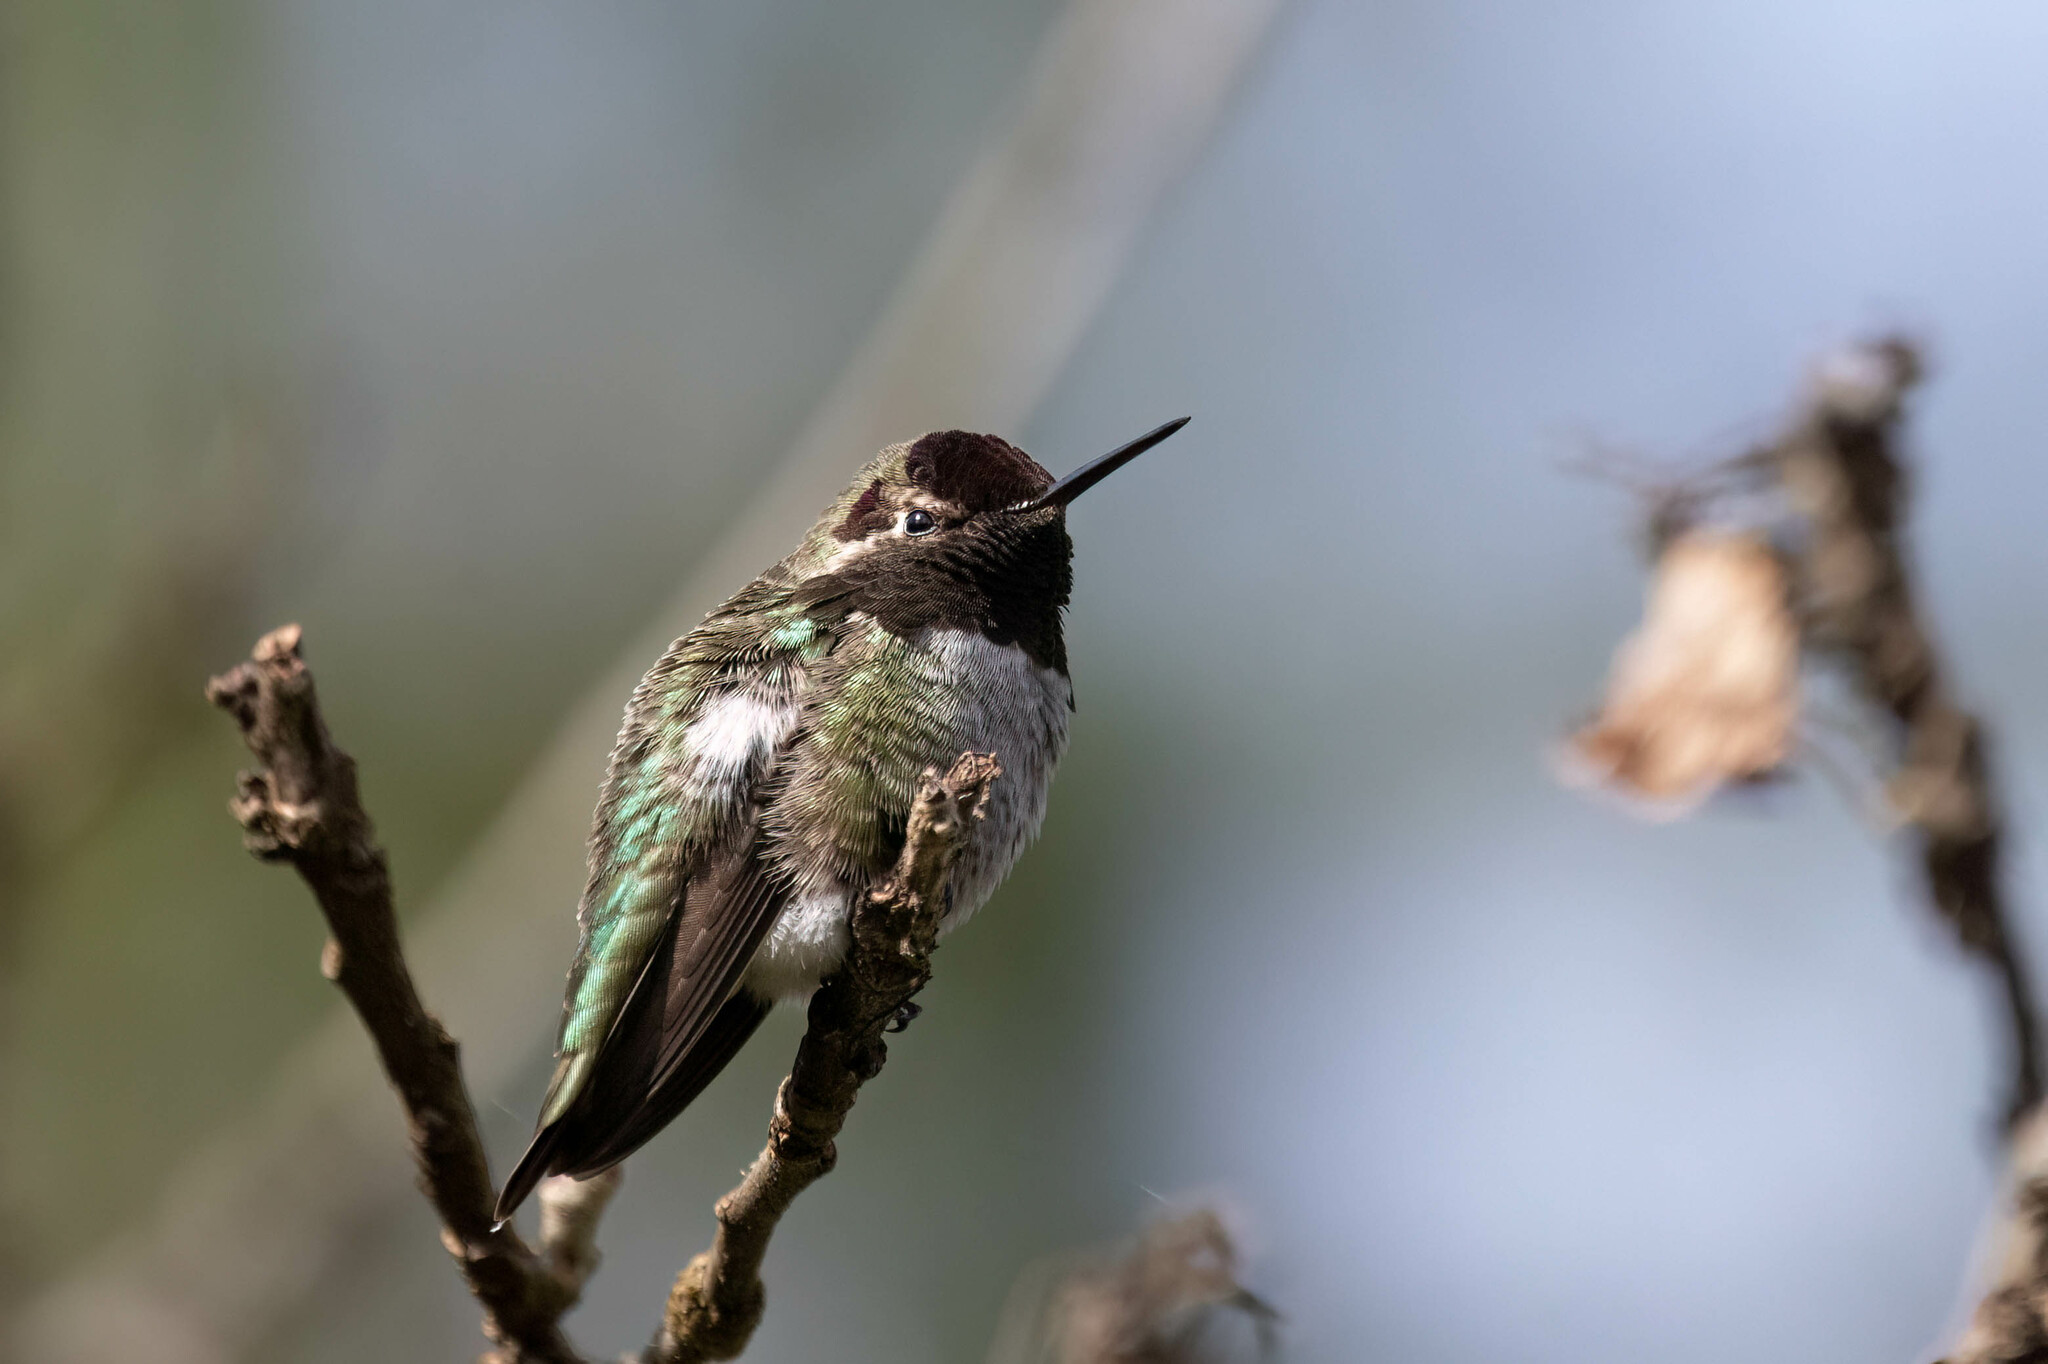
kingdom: Animalia
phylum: Chordata
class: Aves
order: Apodiformes
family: Trochilidae
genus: Calypte
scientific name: Calypte anna
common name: Anna's hummingbird
